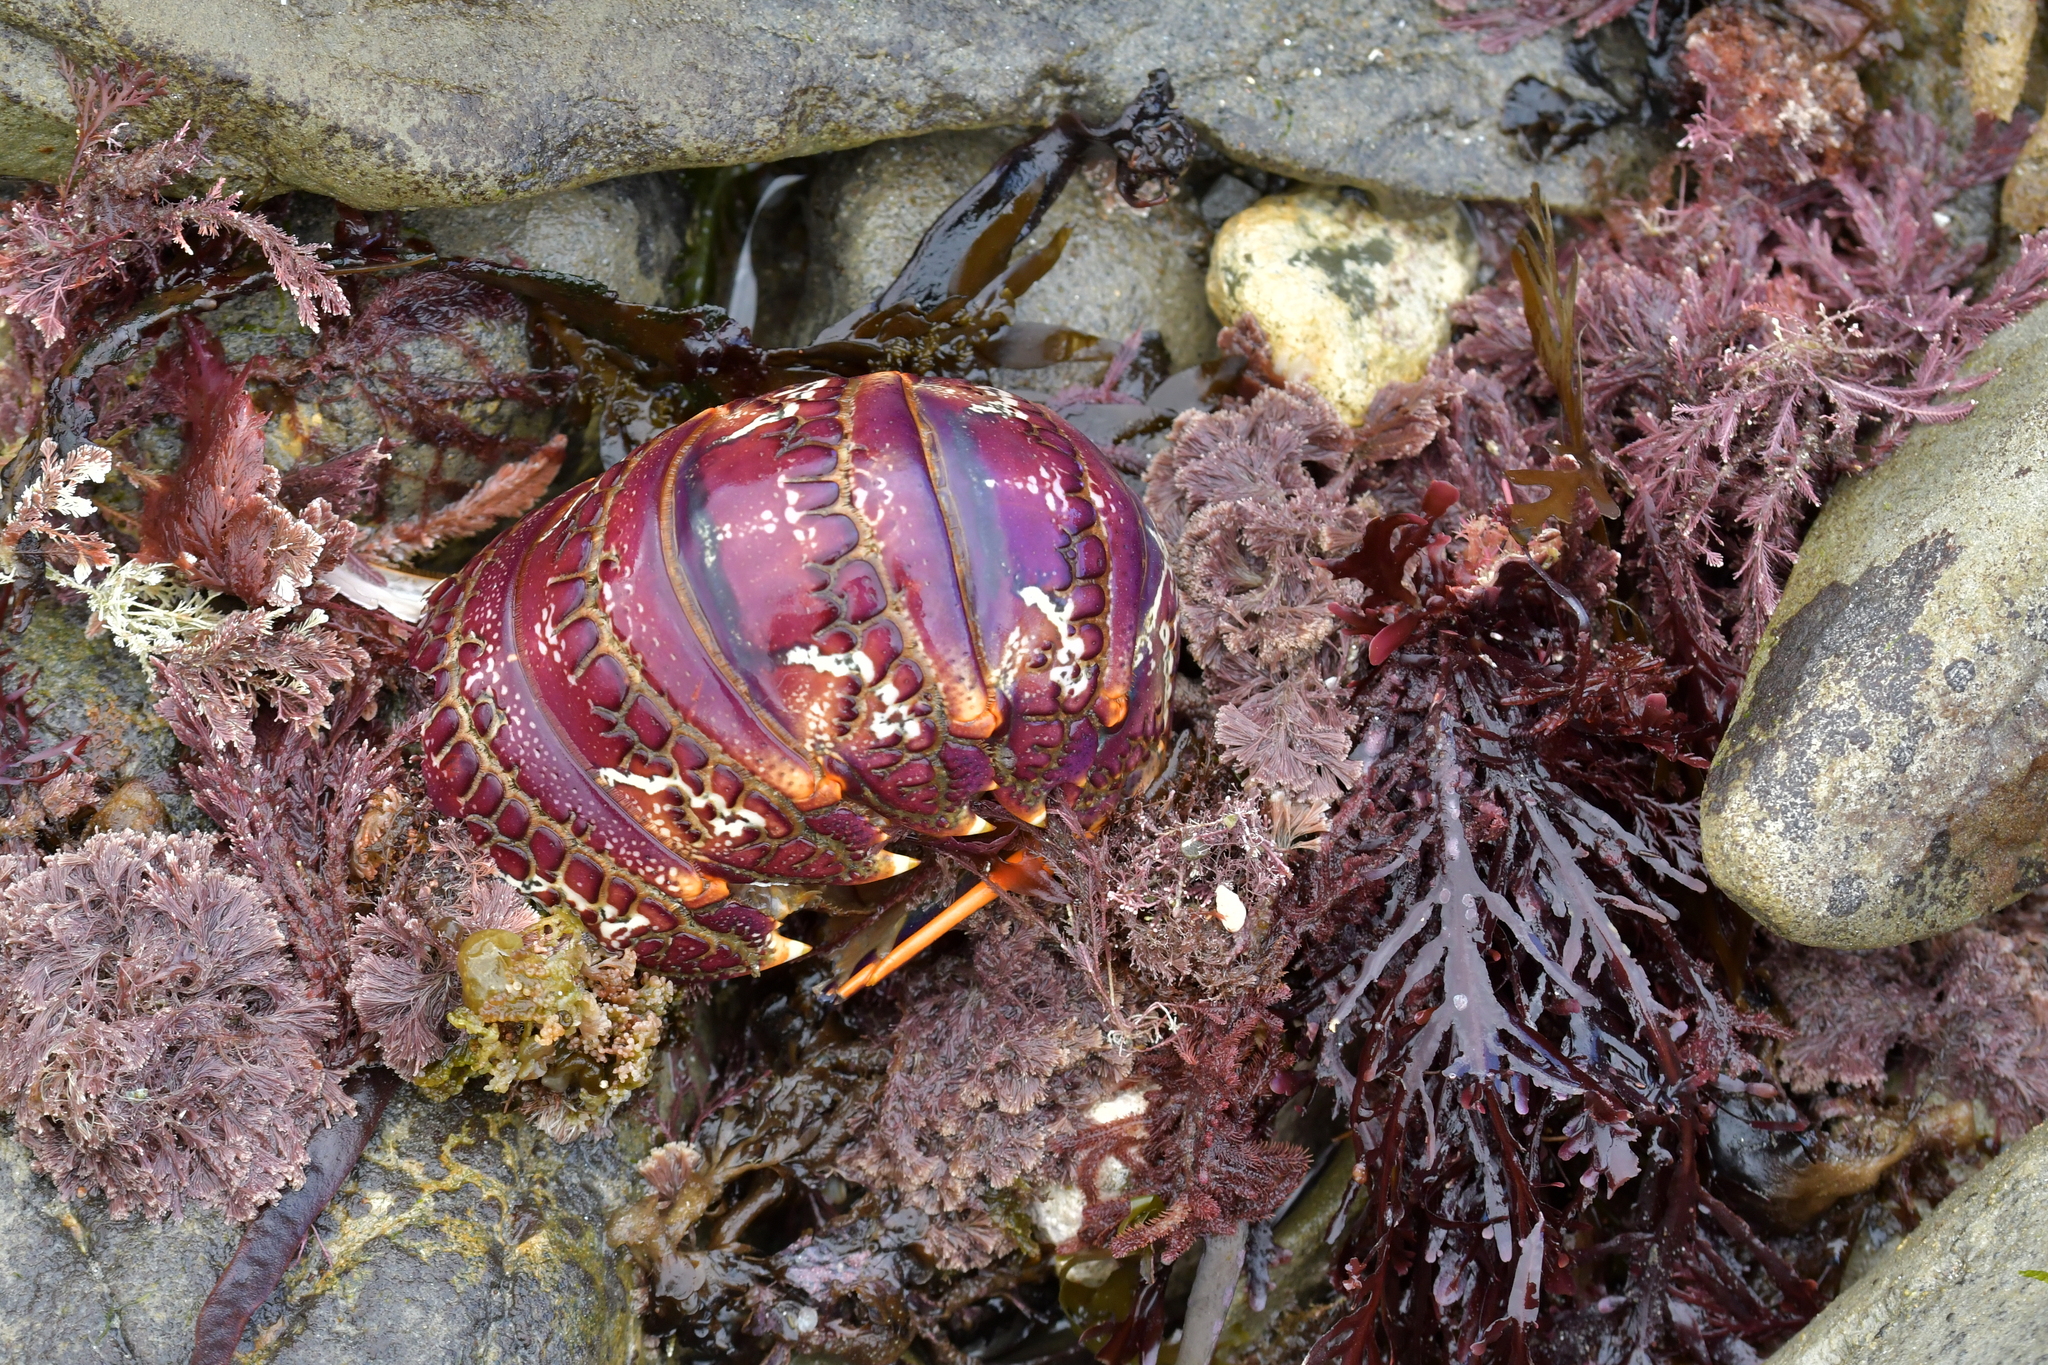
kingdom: Animalia
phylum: Arthropoda
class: Malacostraca
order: Decapoda
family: Palinuridae
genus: Jasus
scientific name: Jasus edwardsii
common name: Red rock lobster
